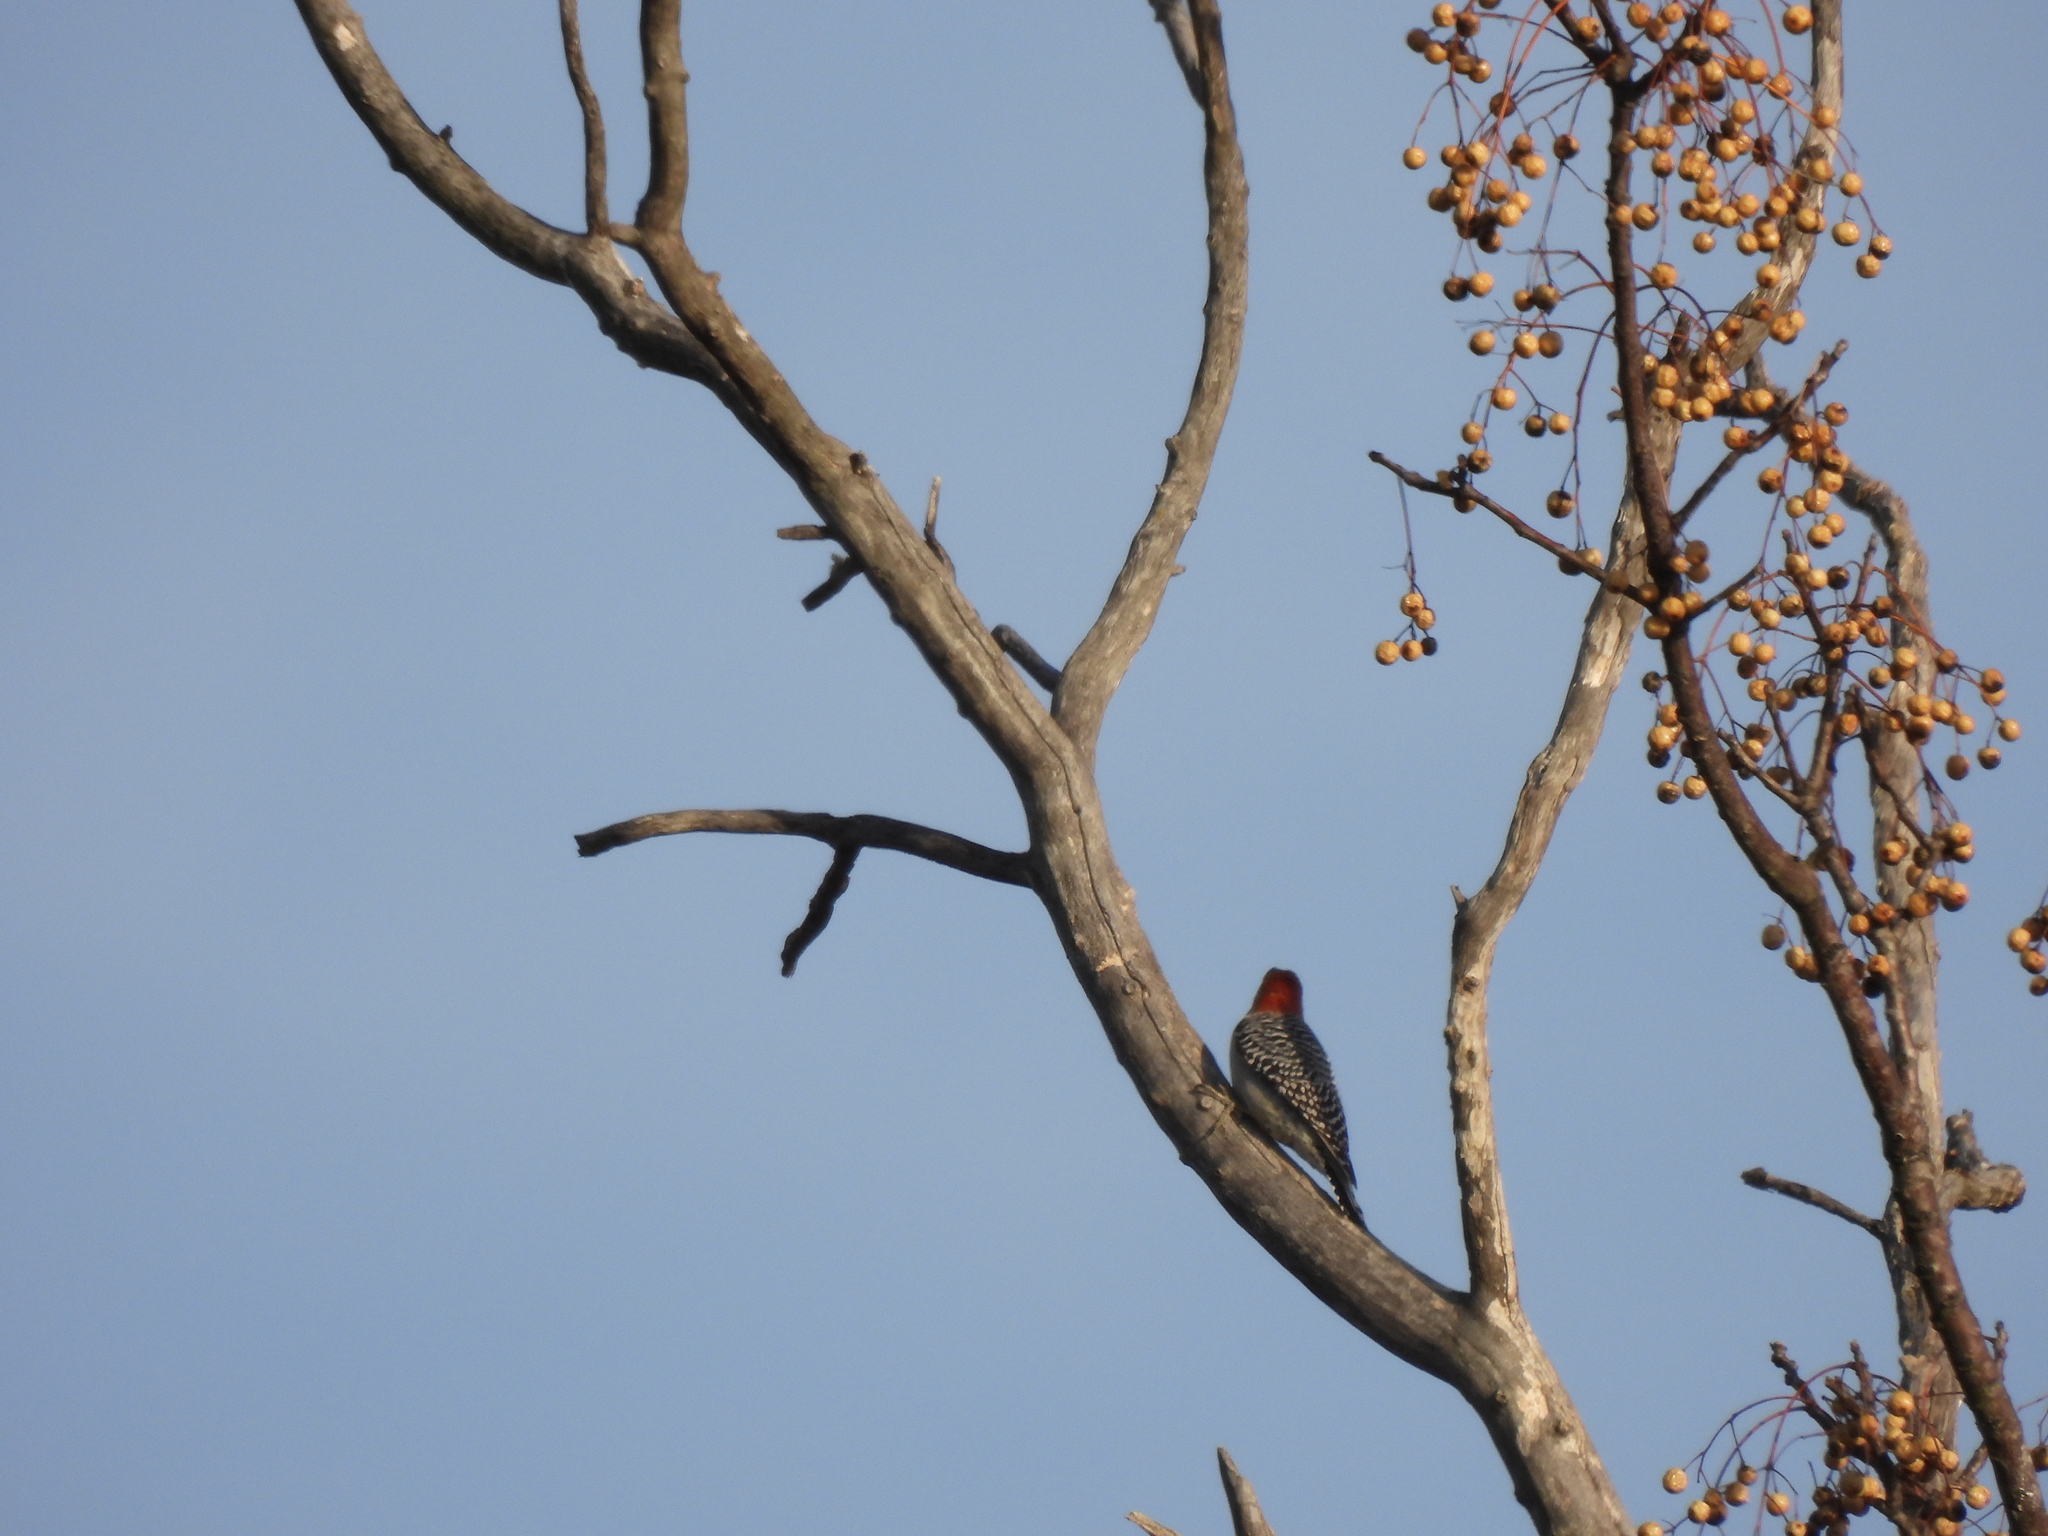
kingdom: Animalia
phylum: Chordata
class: Aves
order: Piciformes
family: Picidae
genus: Melanerpes
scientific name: Melanerpes carolinus
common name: Red-bellied woodpecker
